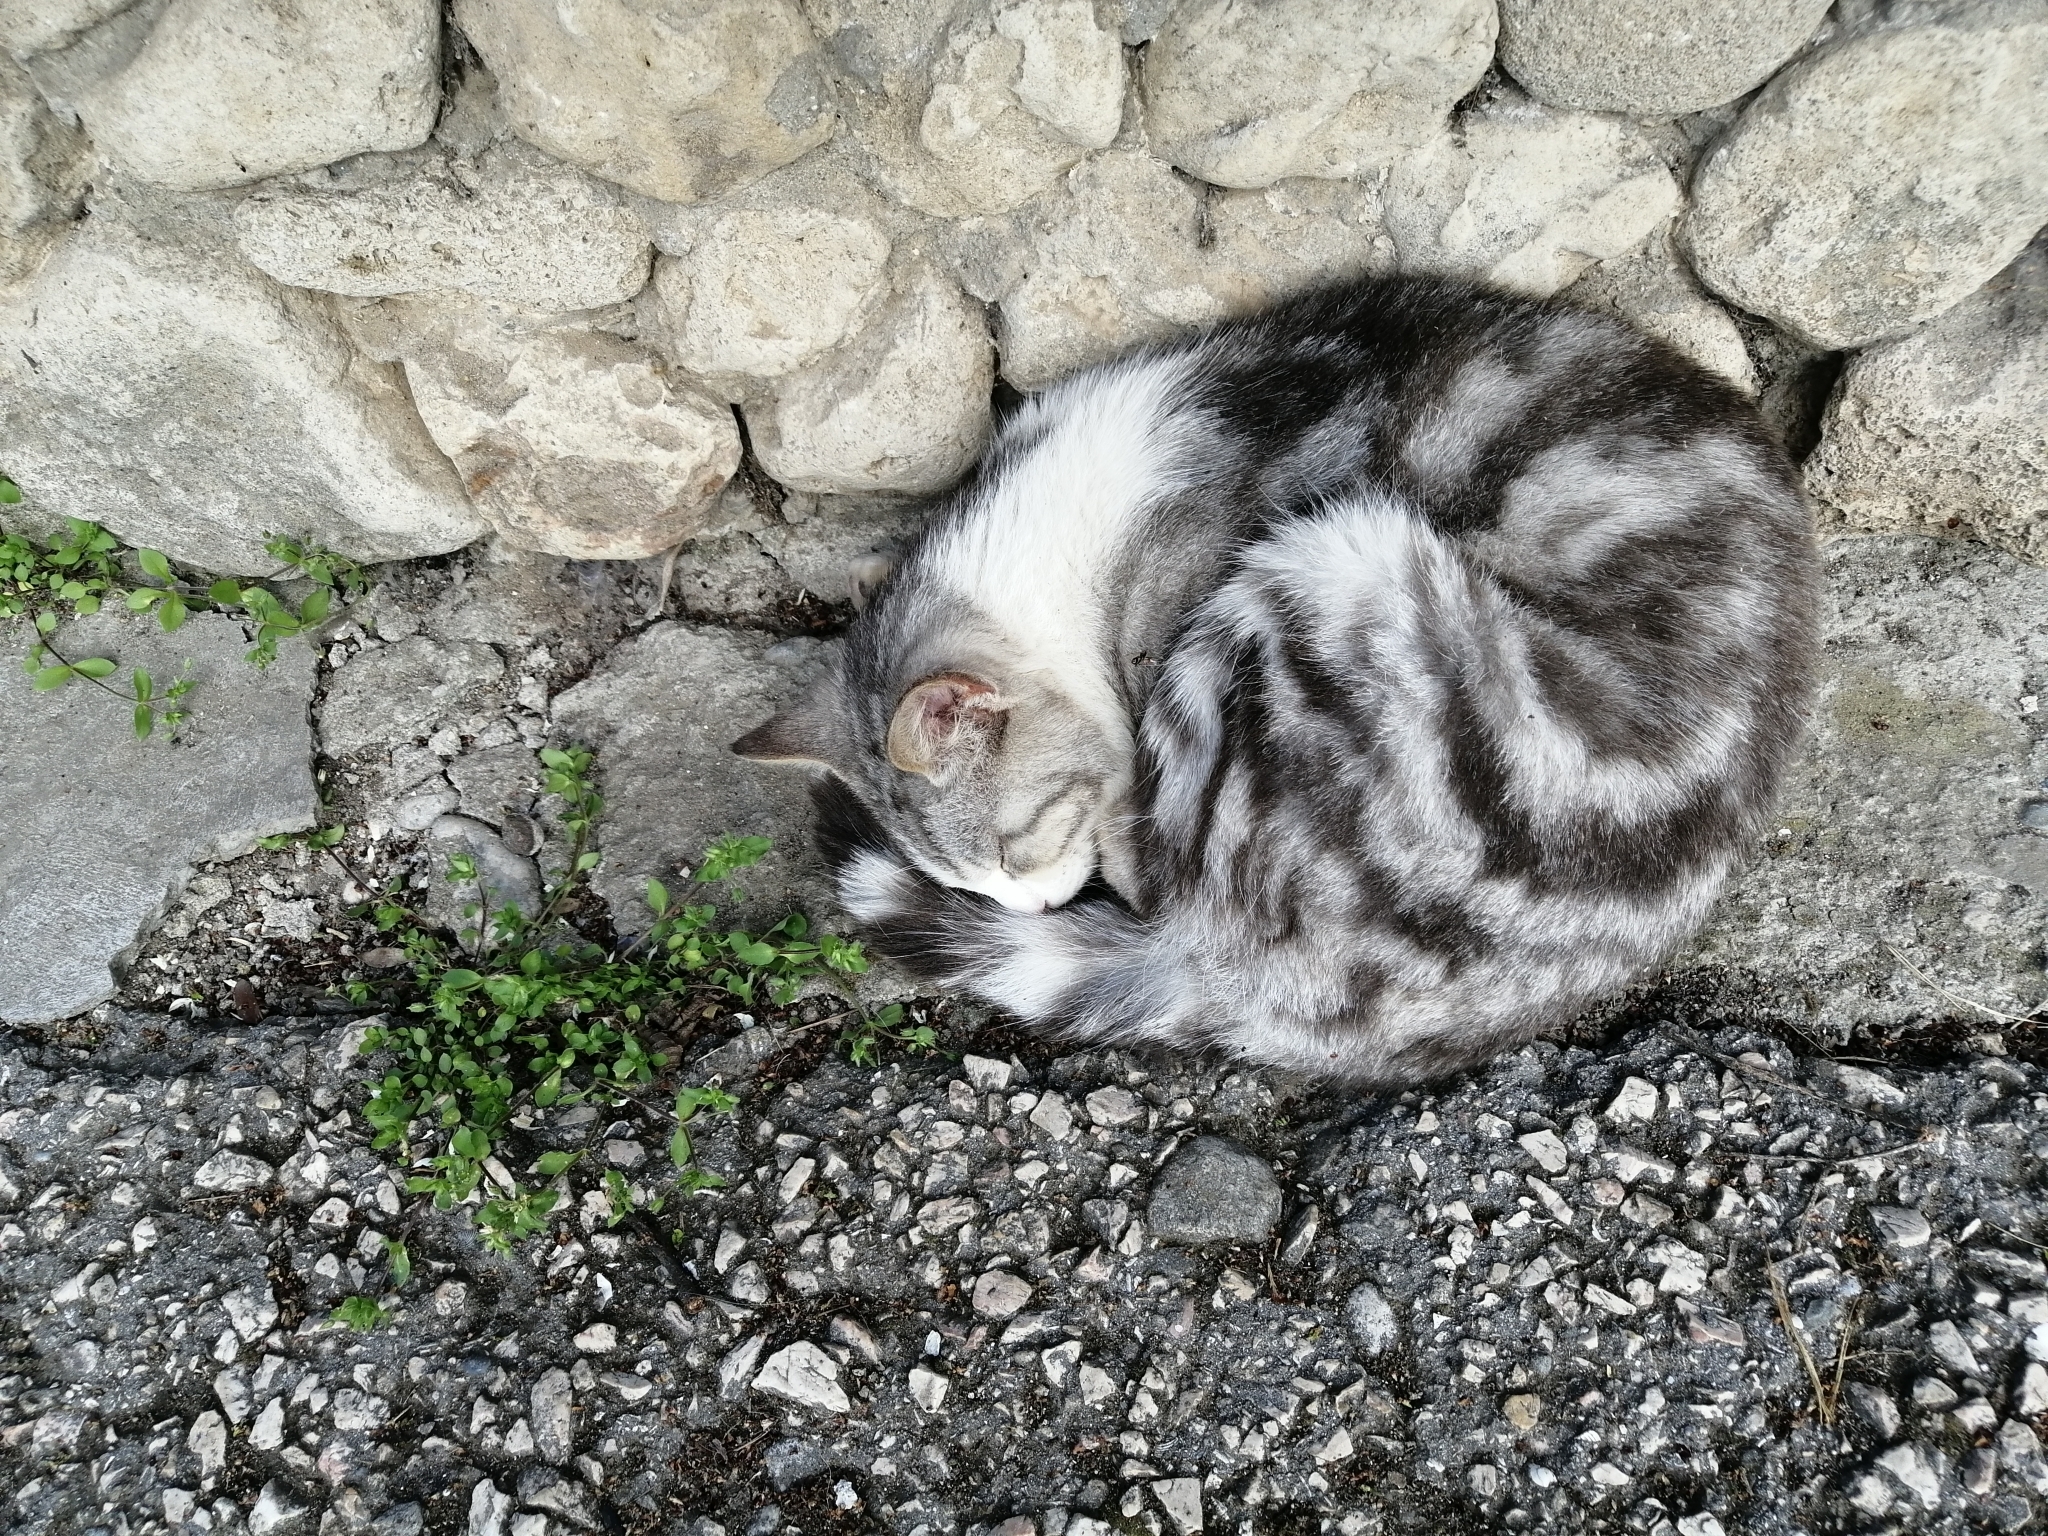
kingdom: Animalia
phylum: Chordata
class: Mammalia
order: Carnivora
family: Felidae
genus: Felis
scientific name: Felis catus
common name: Domestic cat
